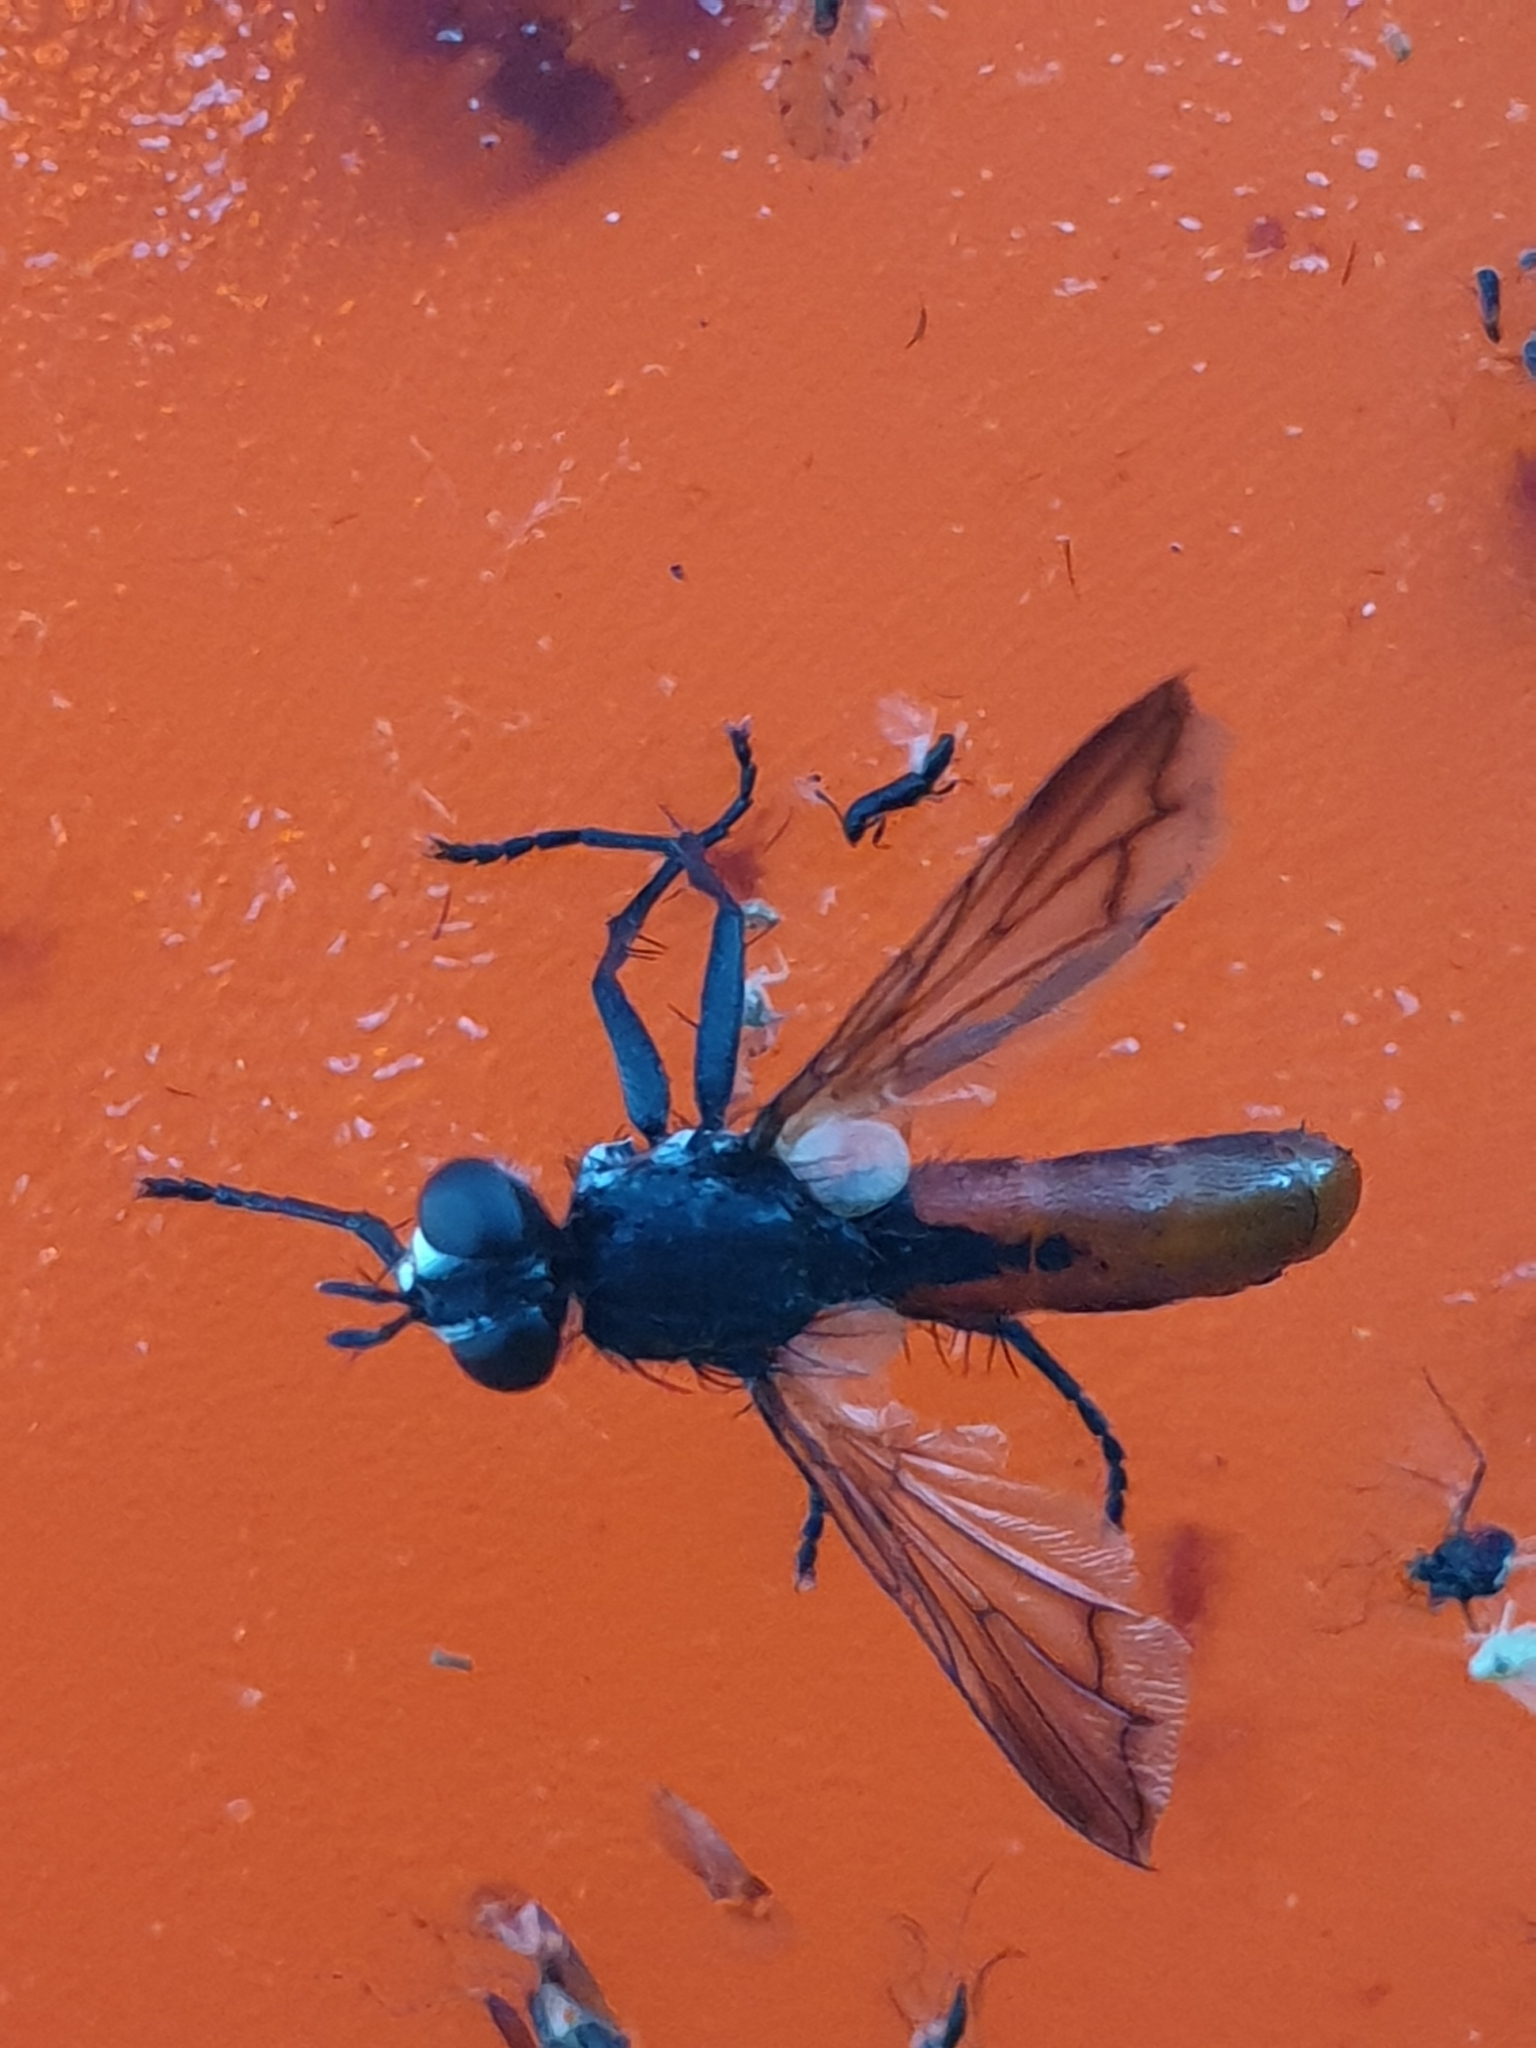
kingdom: Animalia
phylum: Arthropoda
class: Insecta
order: Diptera
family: Tachinidae
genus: Cylindromyia
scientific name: Cylindromyia bicolor
